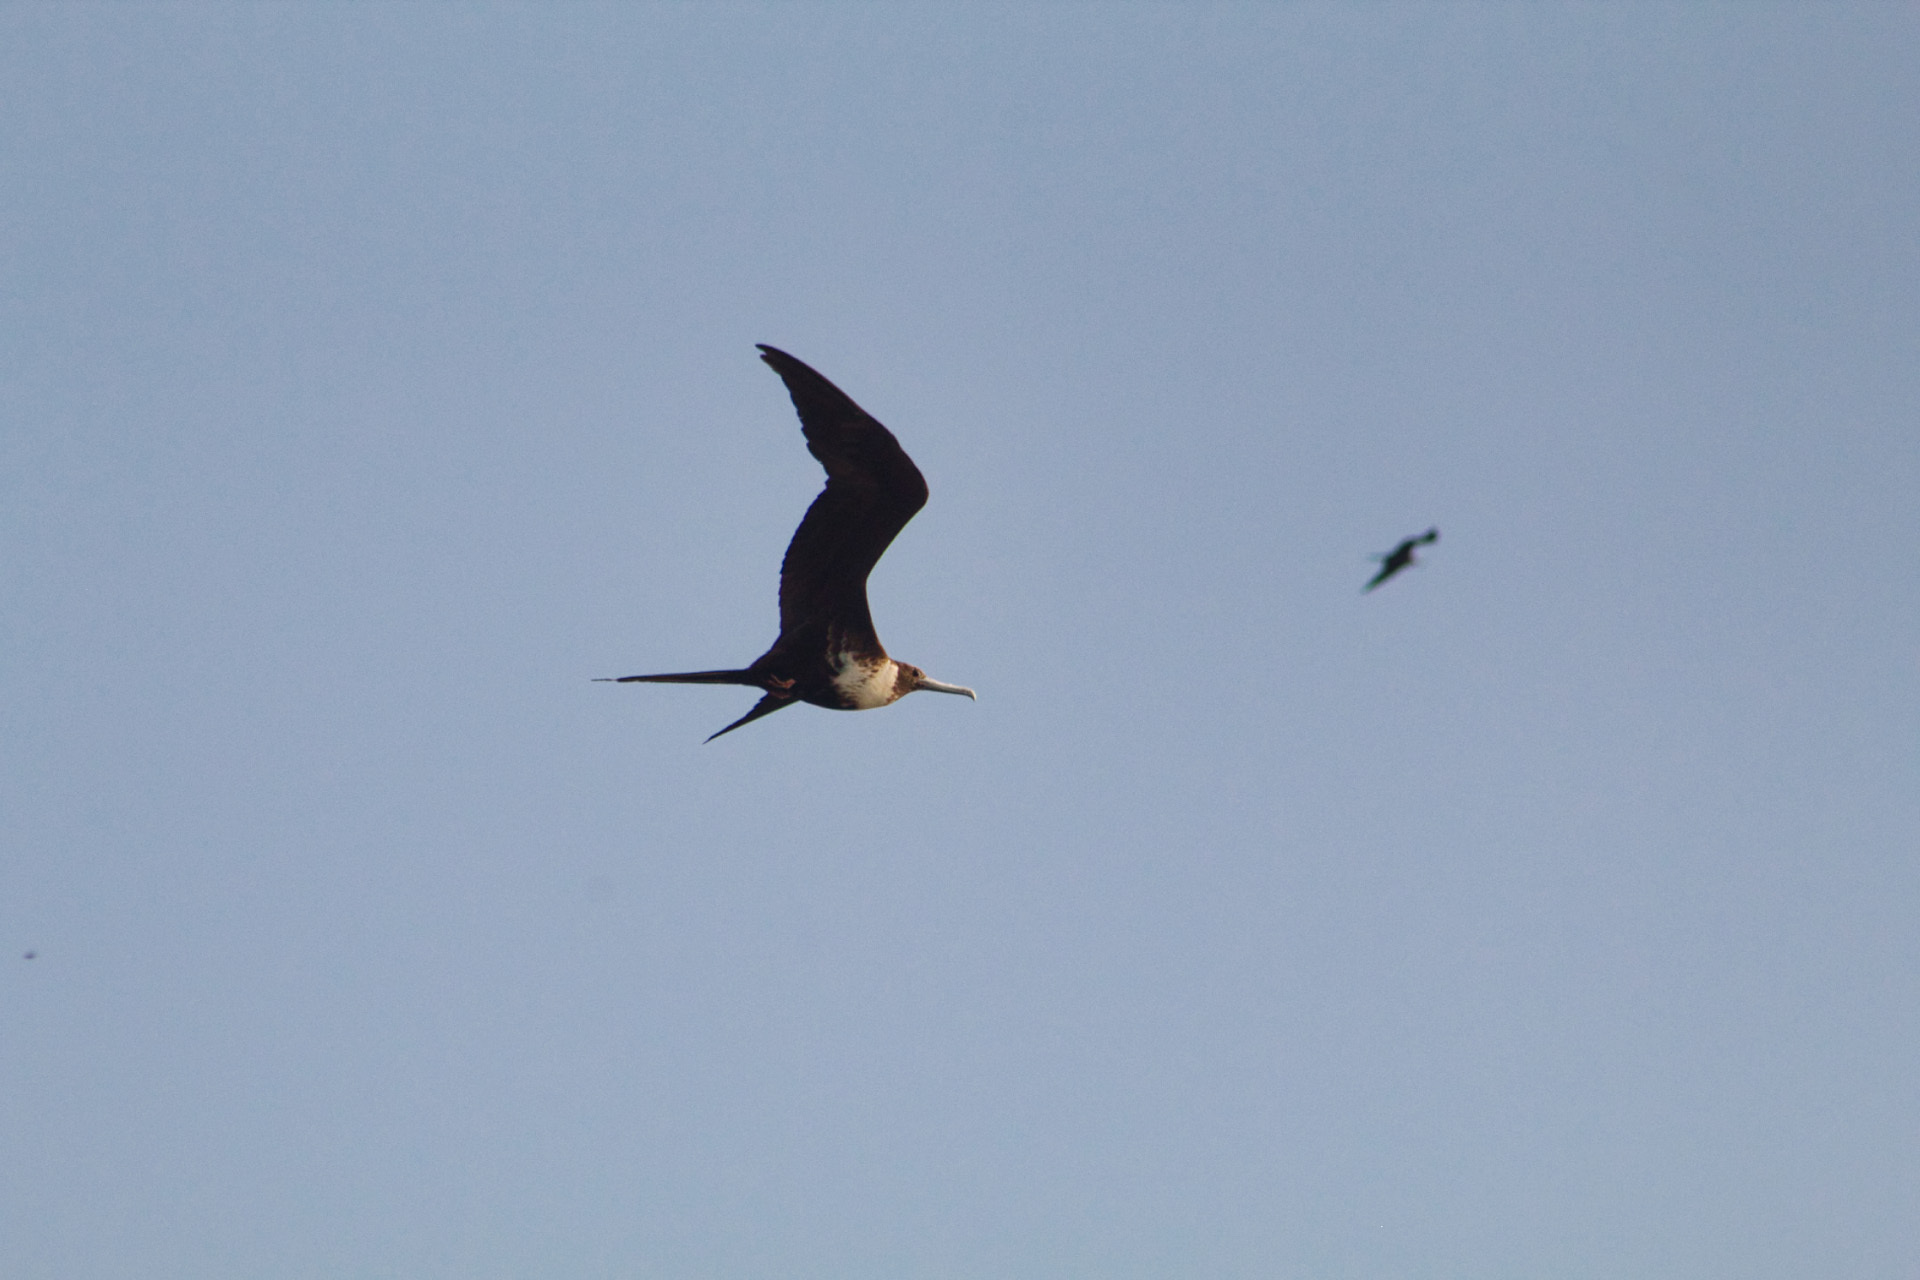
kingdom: Animalia
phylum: Chordata
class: Aves
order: Suliformes
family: Fregatidae
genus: Fregata
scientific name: Fregata magnificens
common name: Magnificent frigatebird
